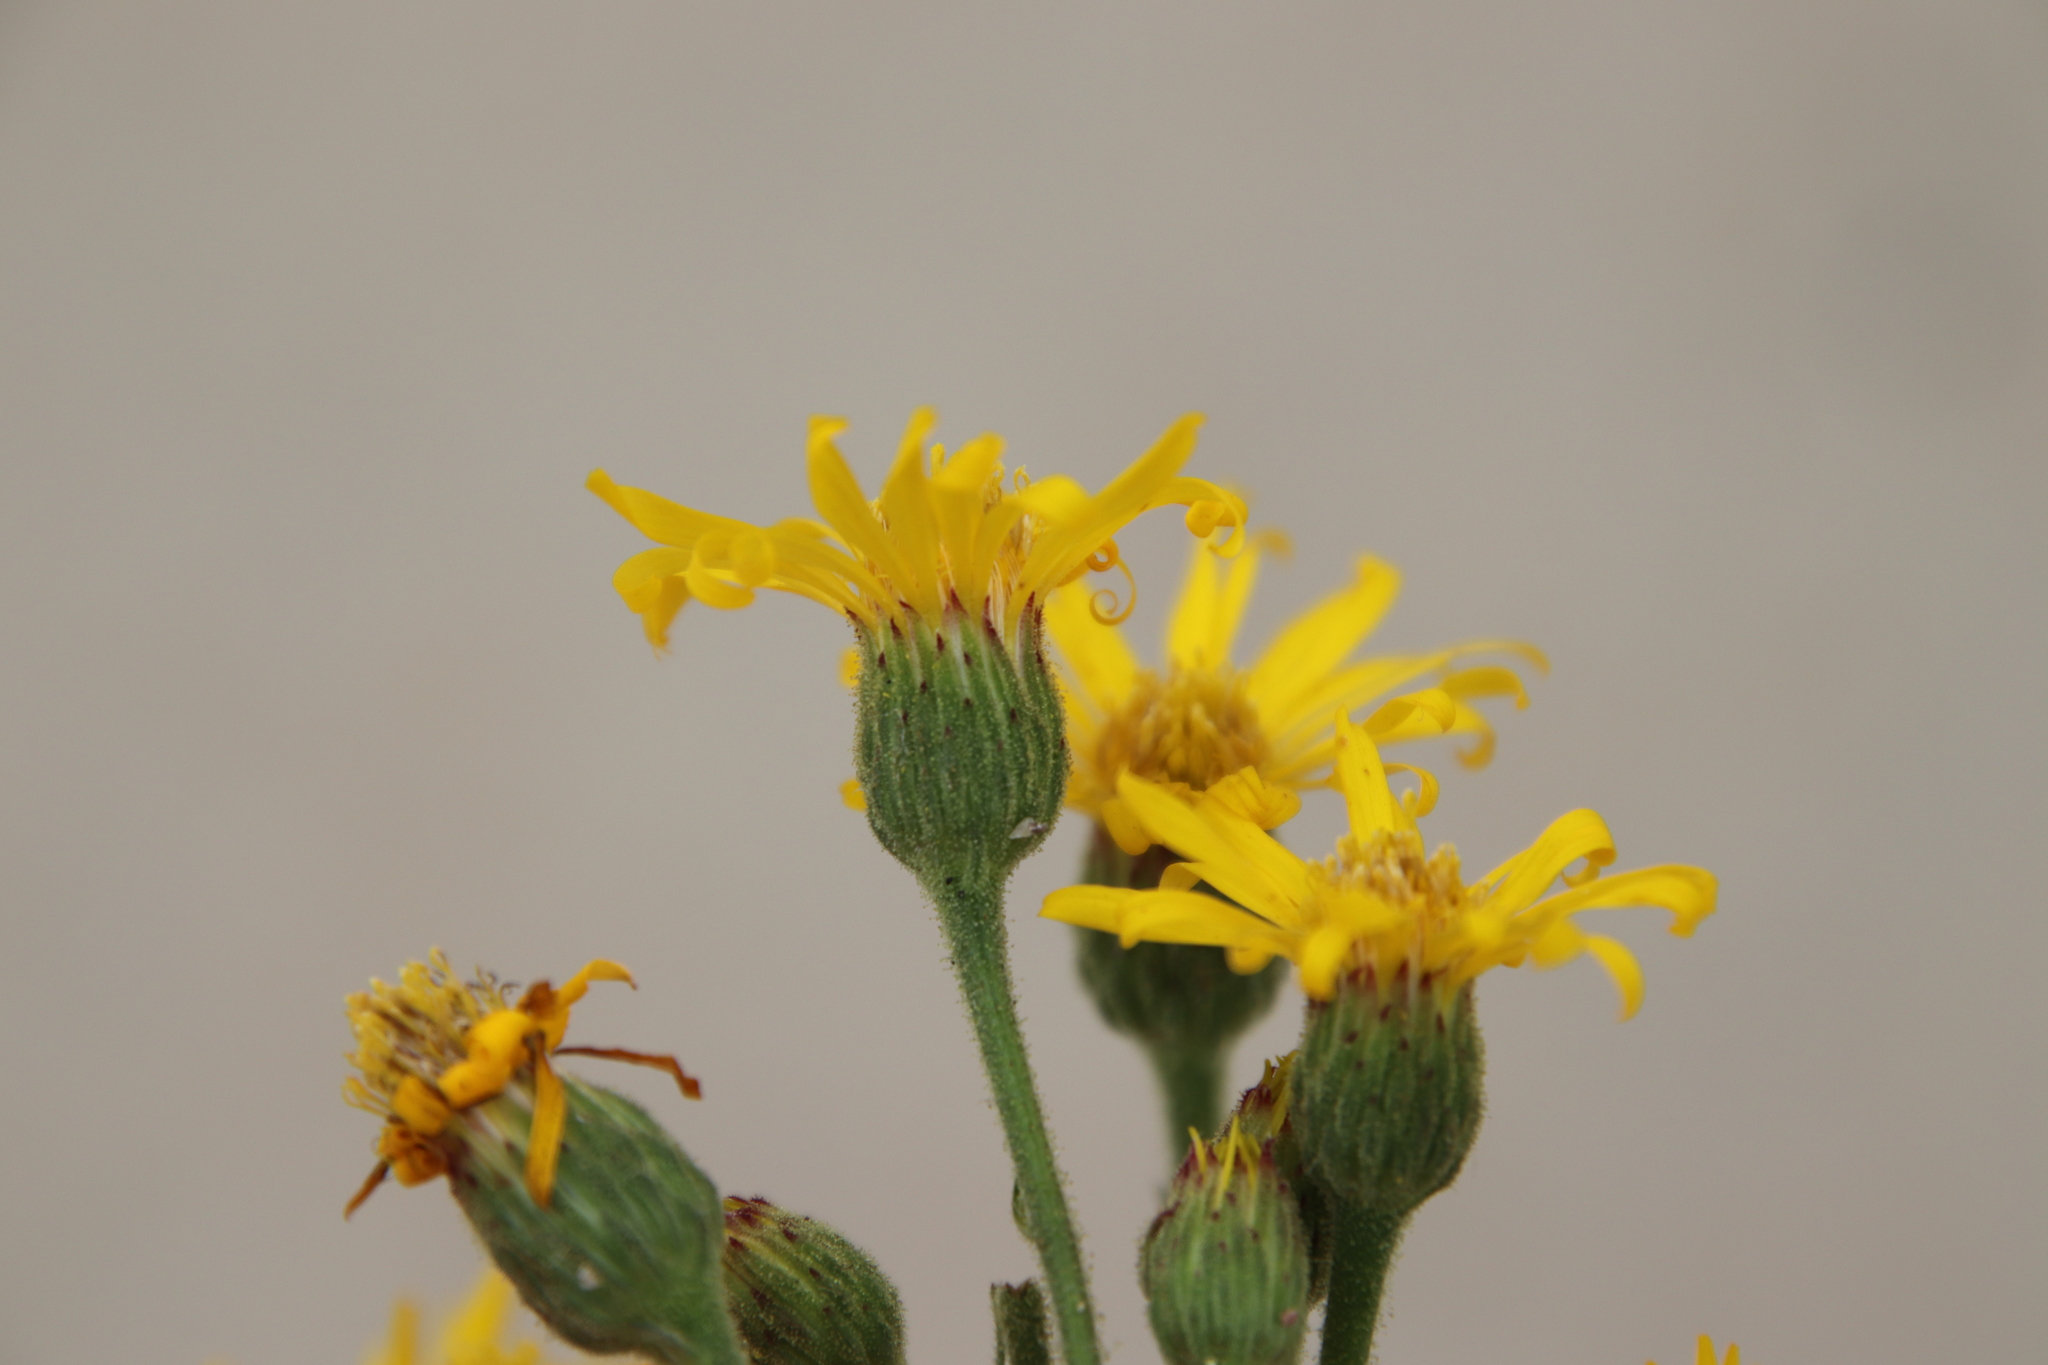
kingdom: Plantae
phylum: Tracheophyta
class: Magnoliopsida
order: Asterales
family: Asteraceae
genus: Heterotheca
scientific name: Heterotheca grandiflora
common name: Telegraphweed
